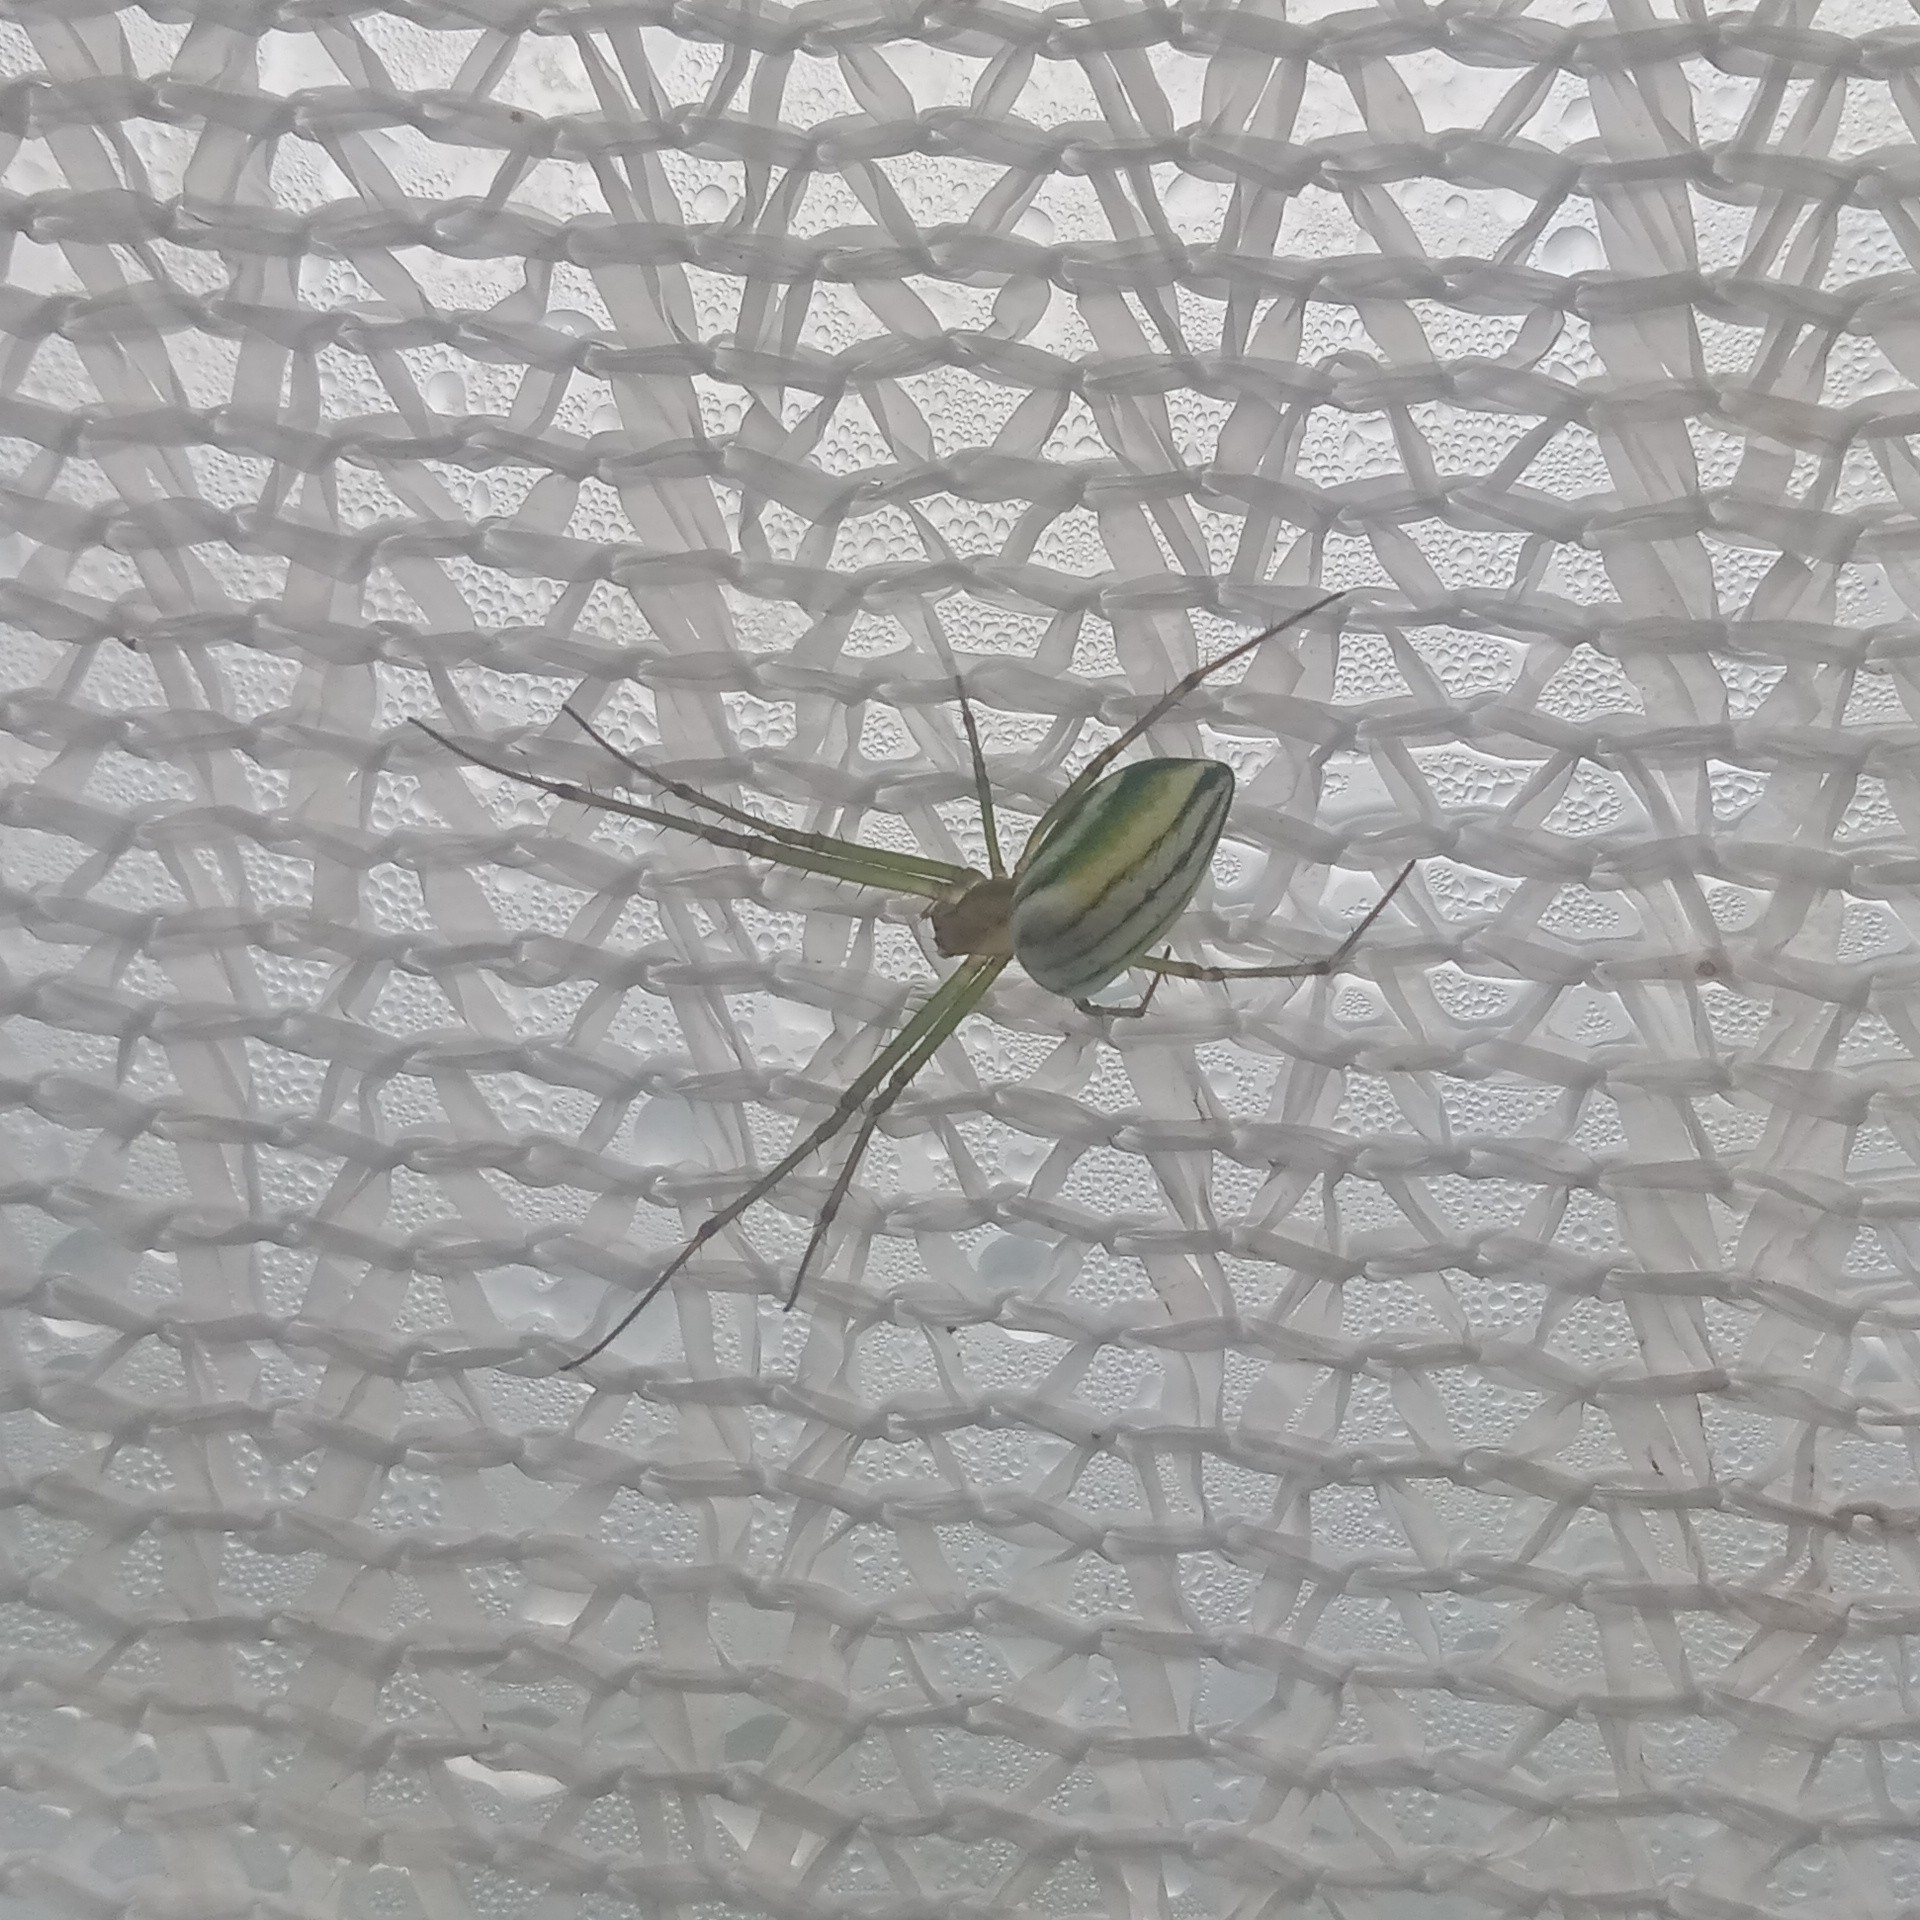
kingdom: Animalia
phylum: Arthropoda
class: Arachnida
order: Araneae
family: Tetragnathidae
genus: Leucauge
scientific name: Leucauge celebesiana
